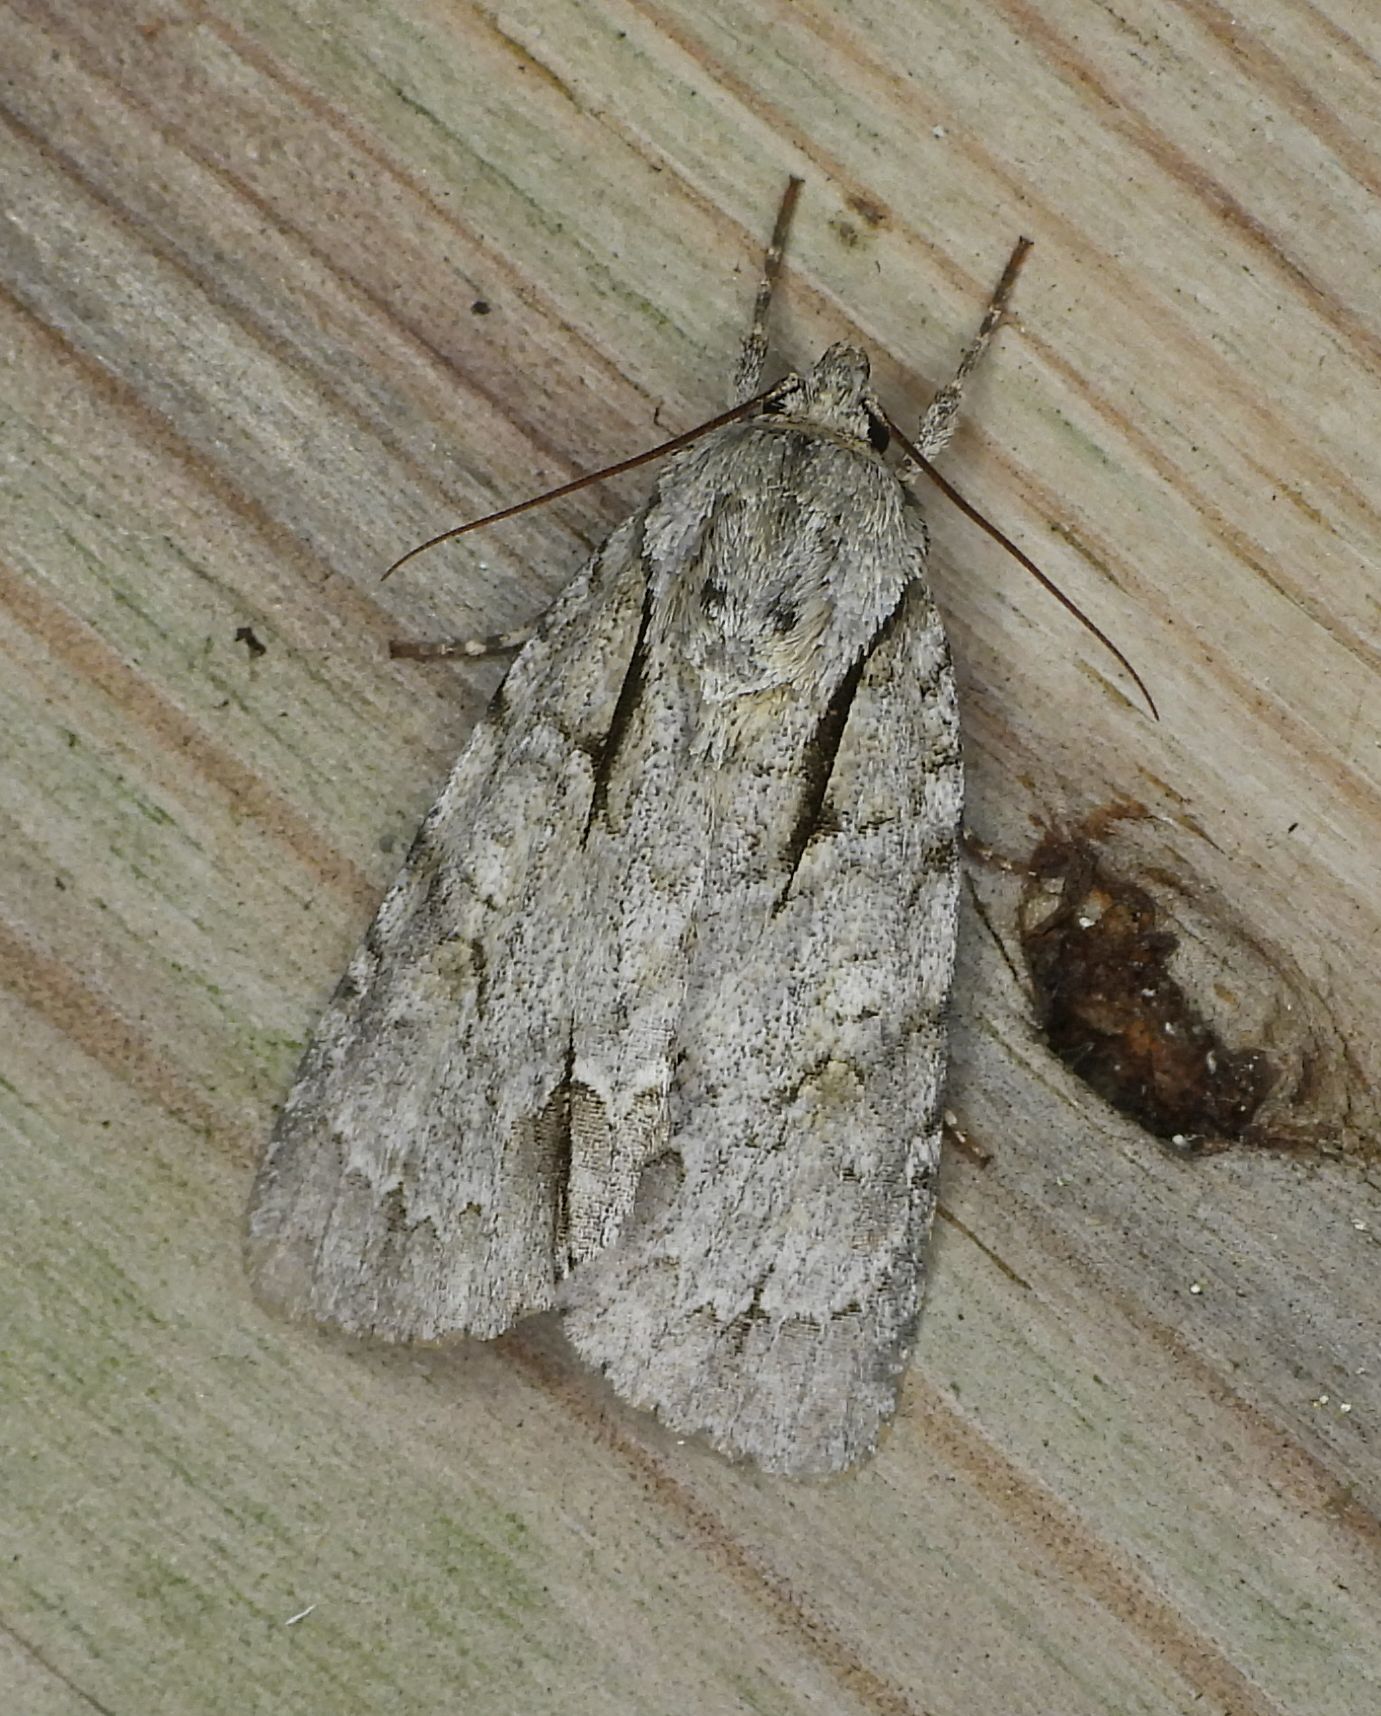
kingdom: Animalia
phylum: Arthropoda
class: Insecta
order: Lepidoptera
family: Noctuidae
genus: Acronicta
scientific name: Acronicta interrupta
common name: Interrupted dagger
